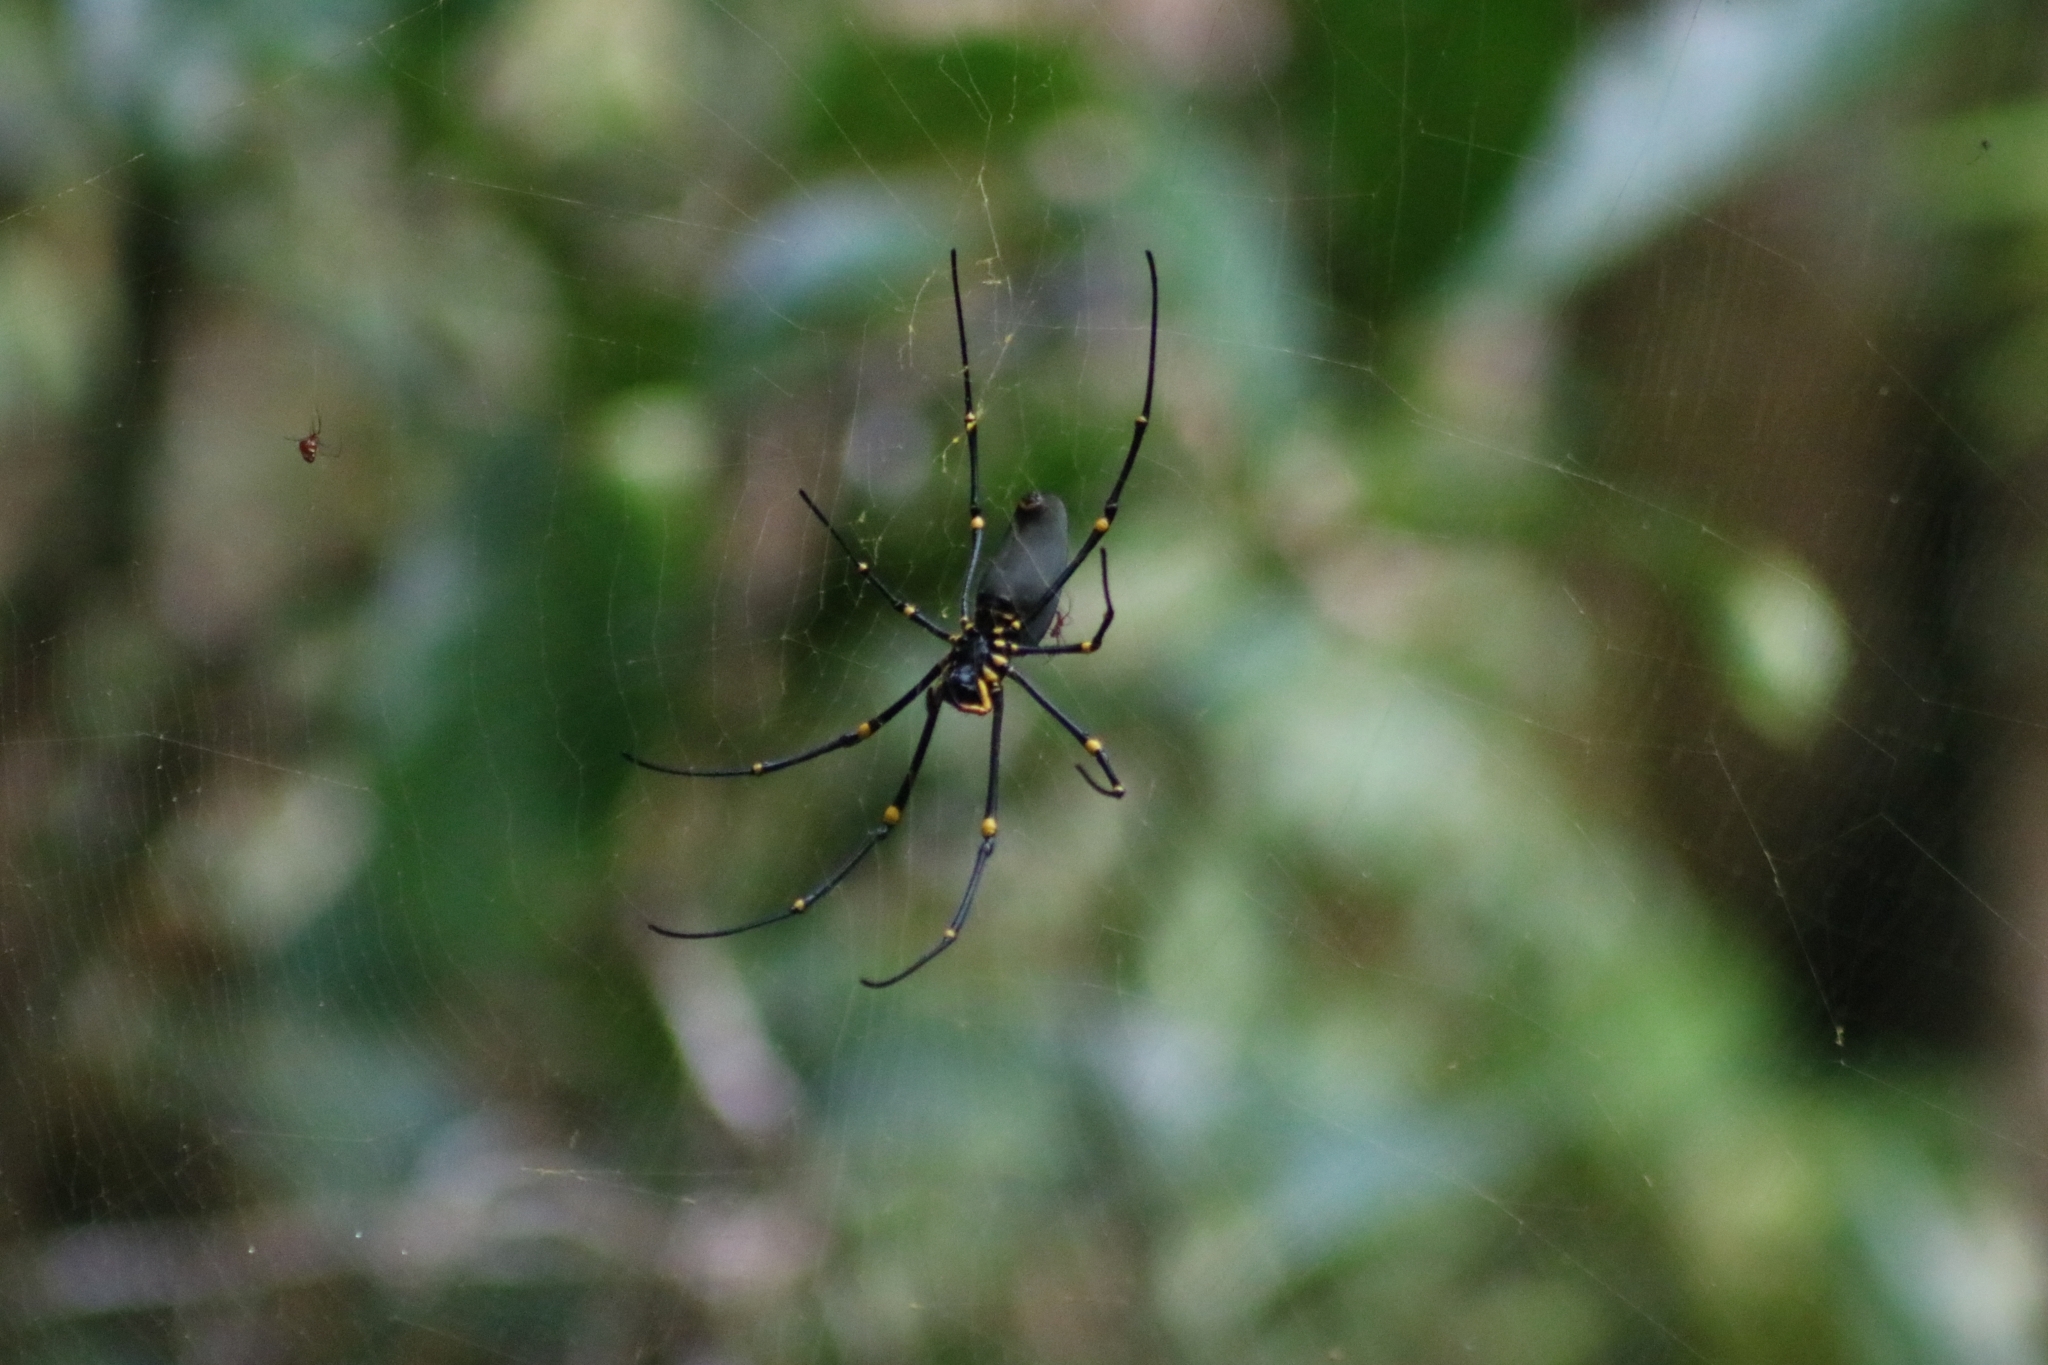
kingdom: Animalia
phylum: Arthropoda
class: Arachnida
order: Araneae
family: Araneidae
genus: Nephila
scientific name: Nephila pilipes
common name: Giant golden orb weaver
